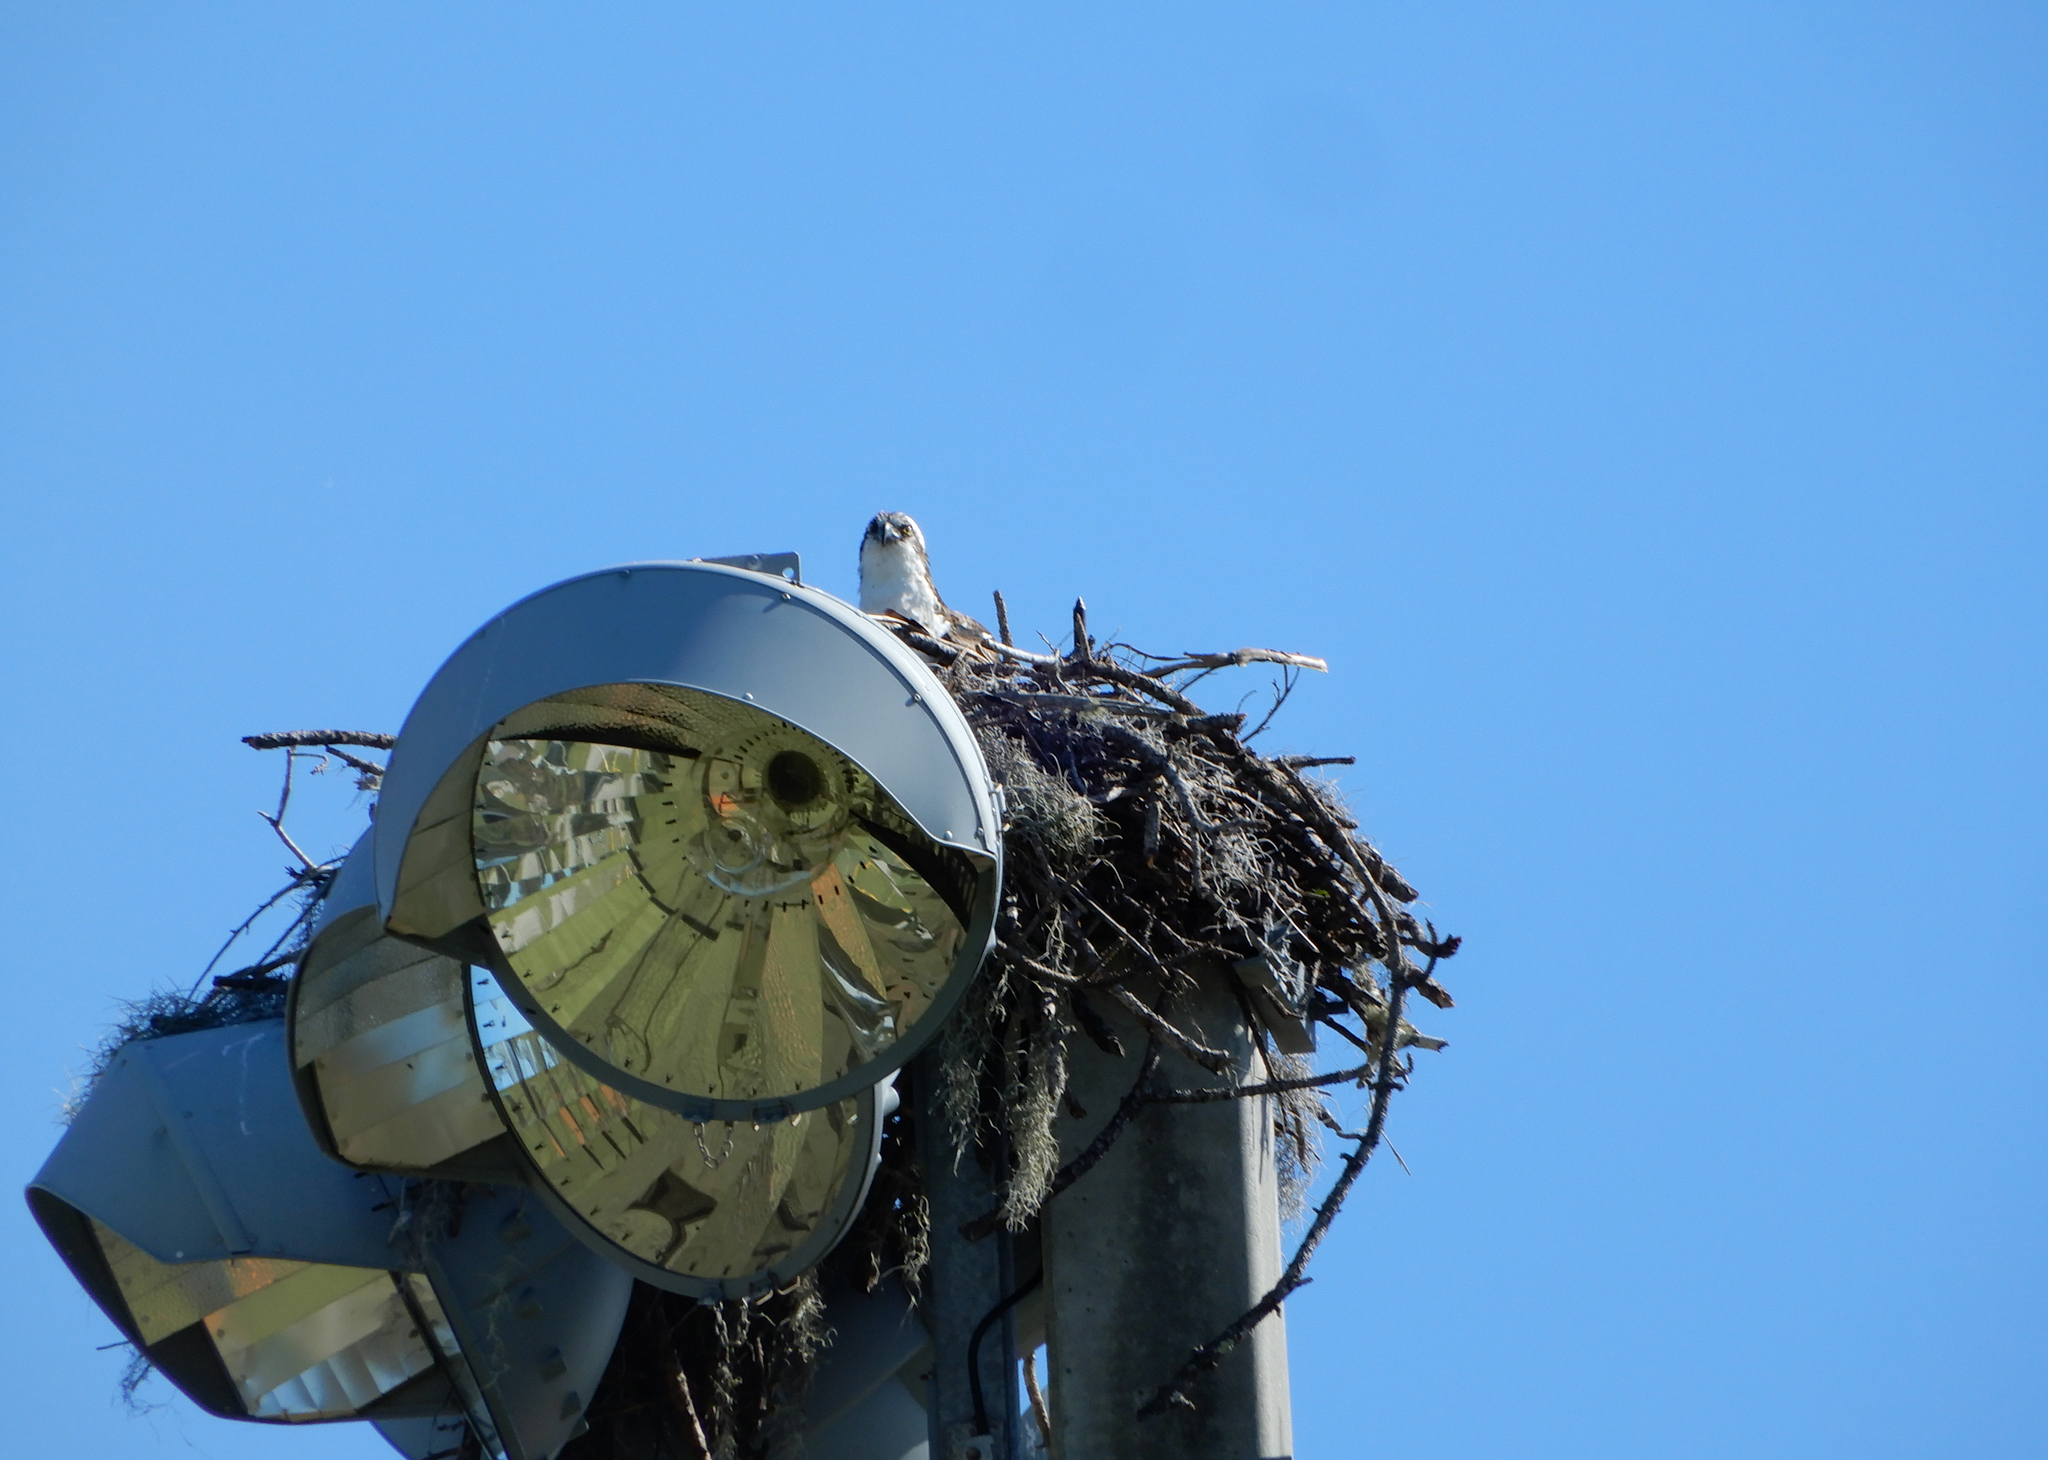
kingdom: Animalia
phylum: Chordata
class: Aves
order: Accipitriformes
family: Pandionidae
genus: Pandion
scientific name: Pandion haliaetus
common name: Osprey
